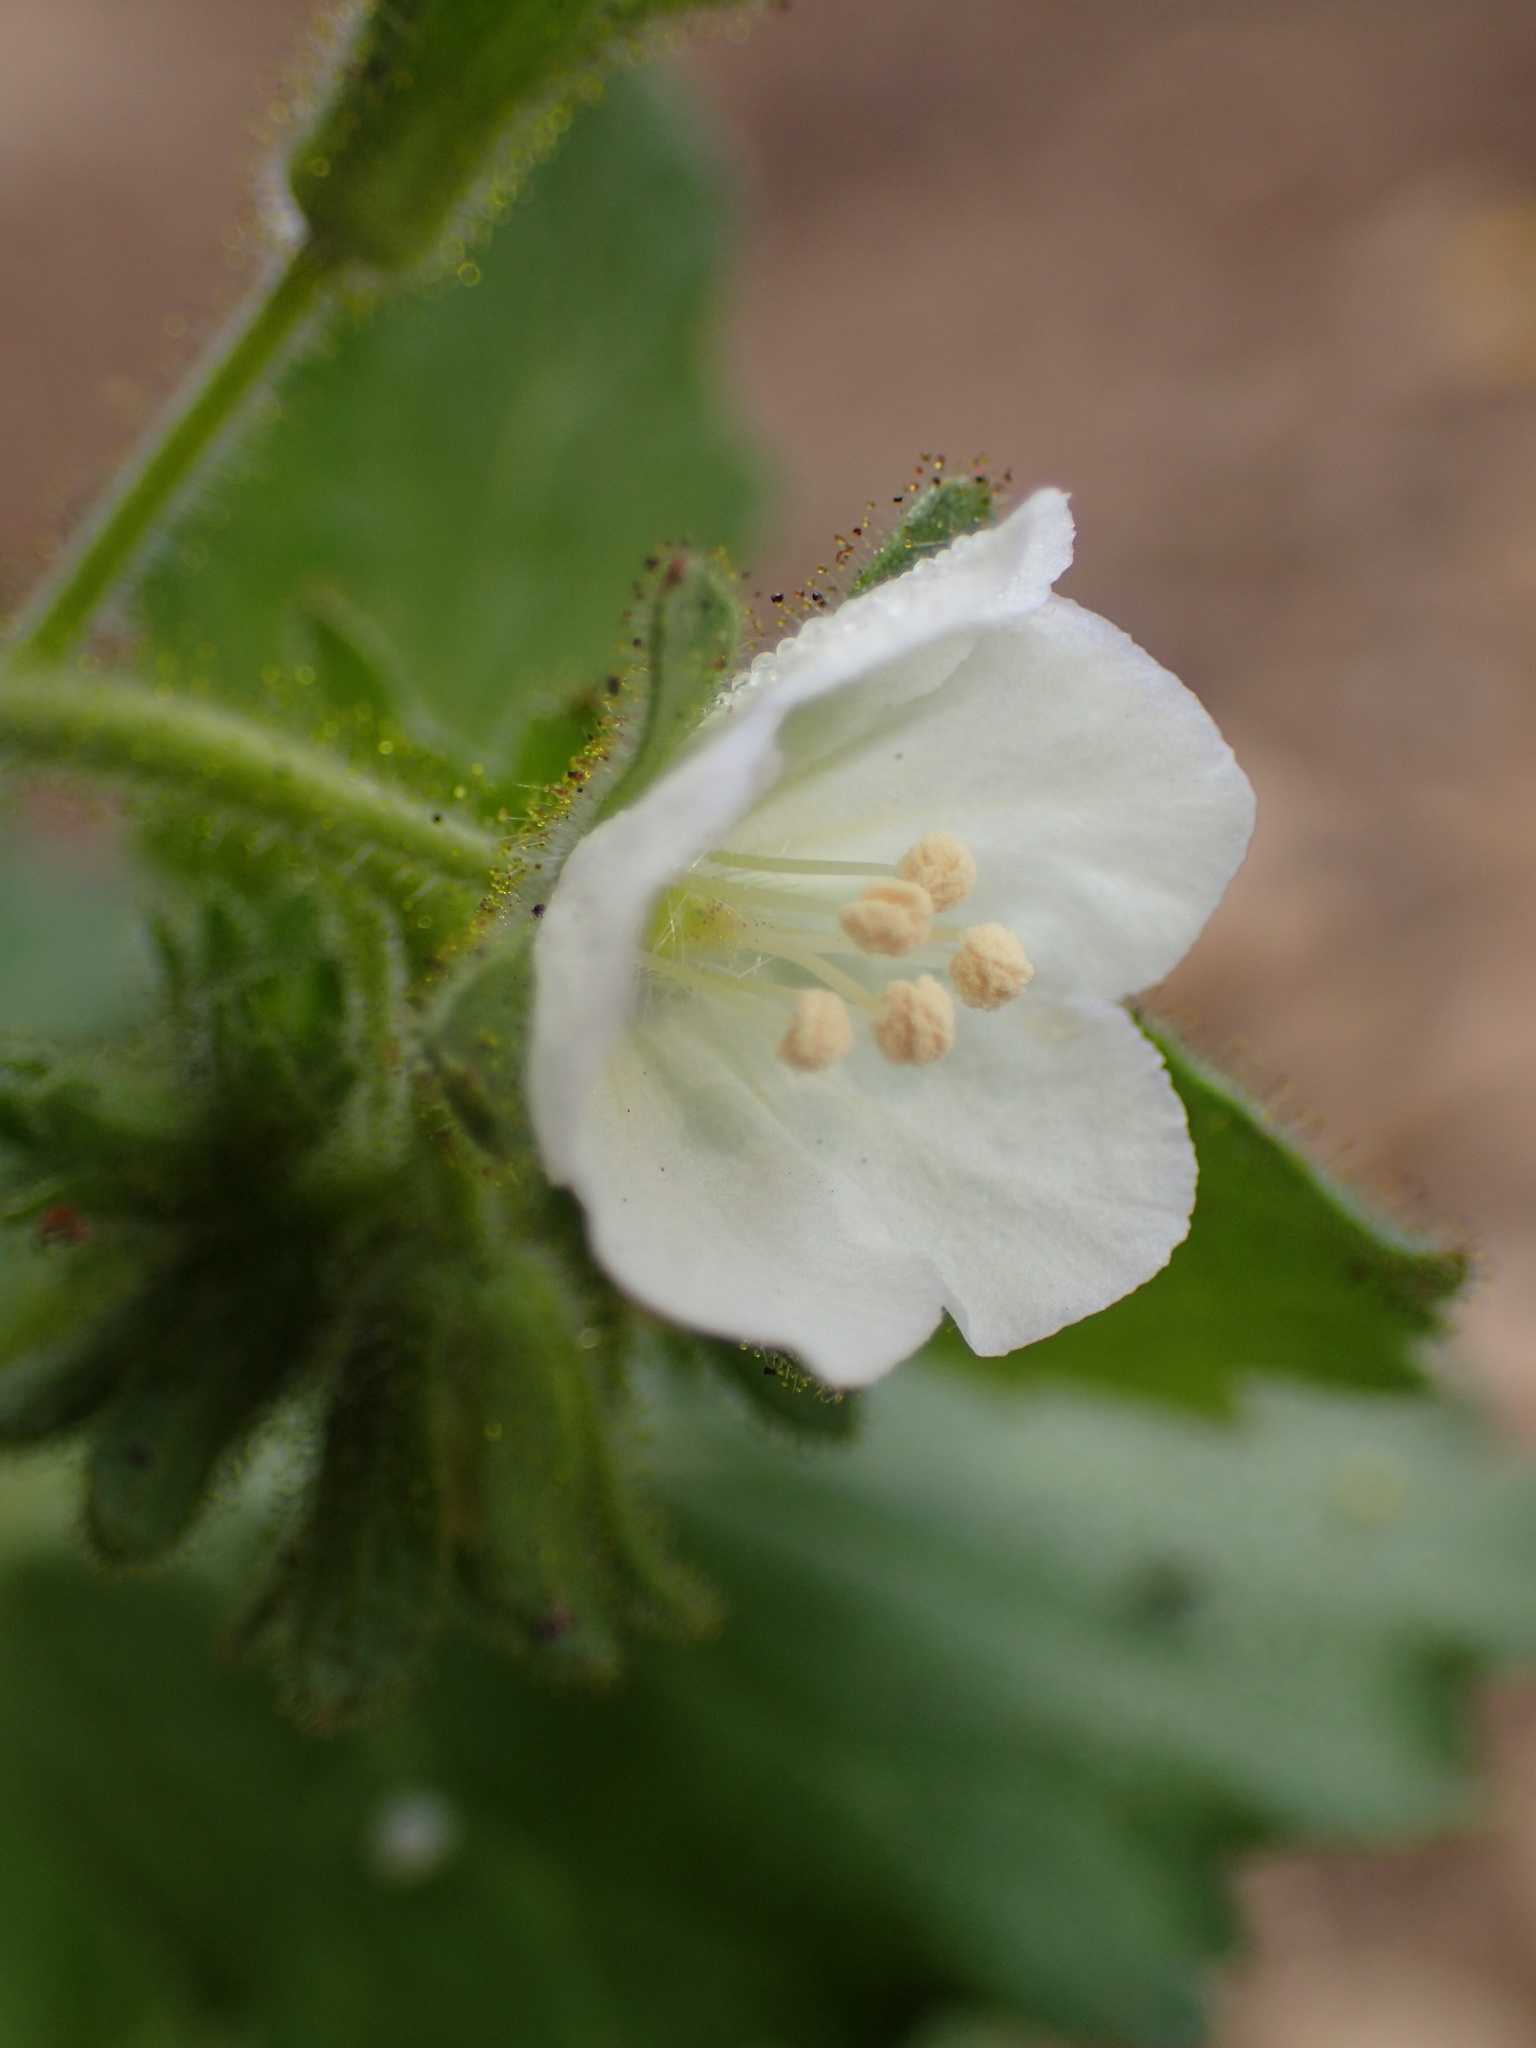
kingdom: Plantae
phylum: Tracheophyta
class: Magnoliopsida
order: Boraginales
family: Hydrophyllaceae
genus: Phacelia
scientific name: Phacelia viscida
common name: Sticky phacelia
